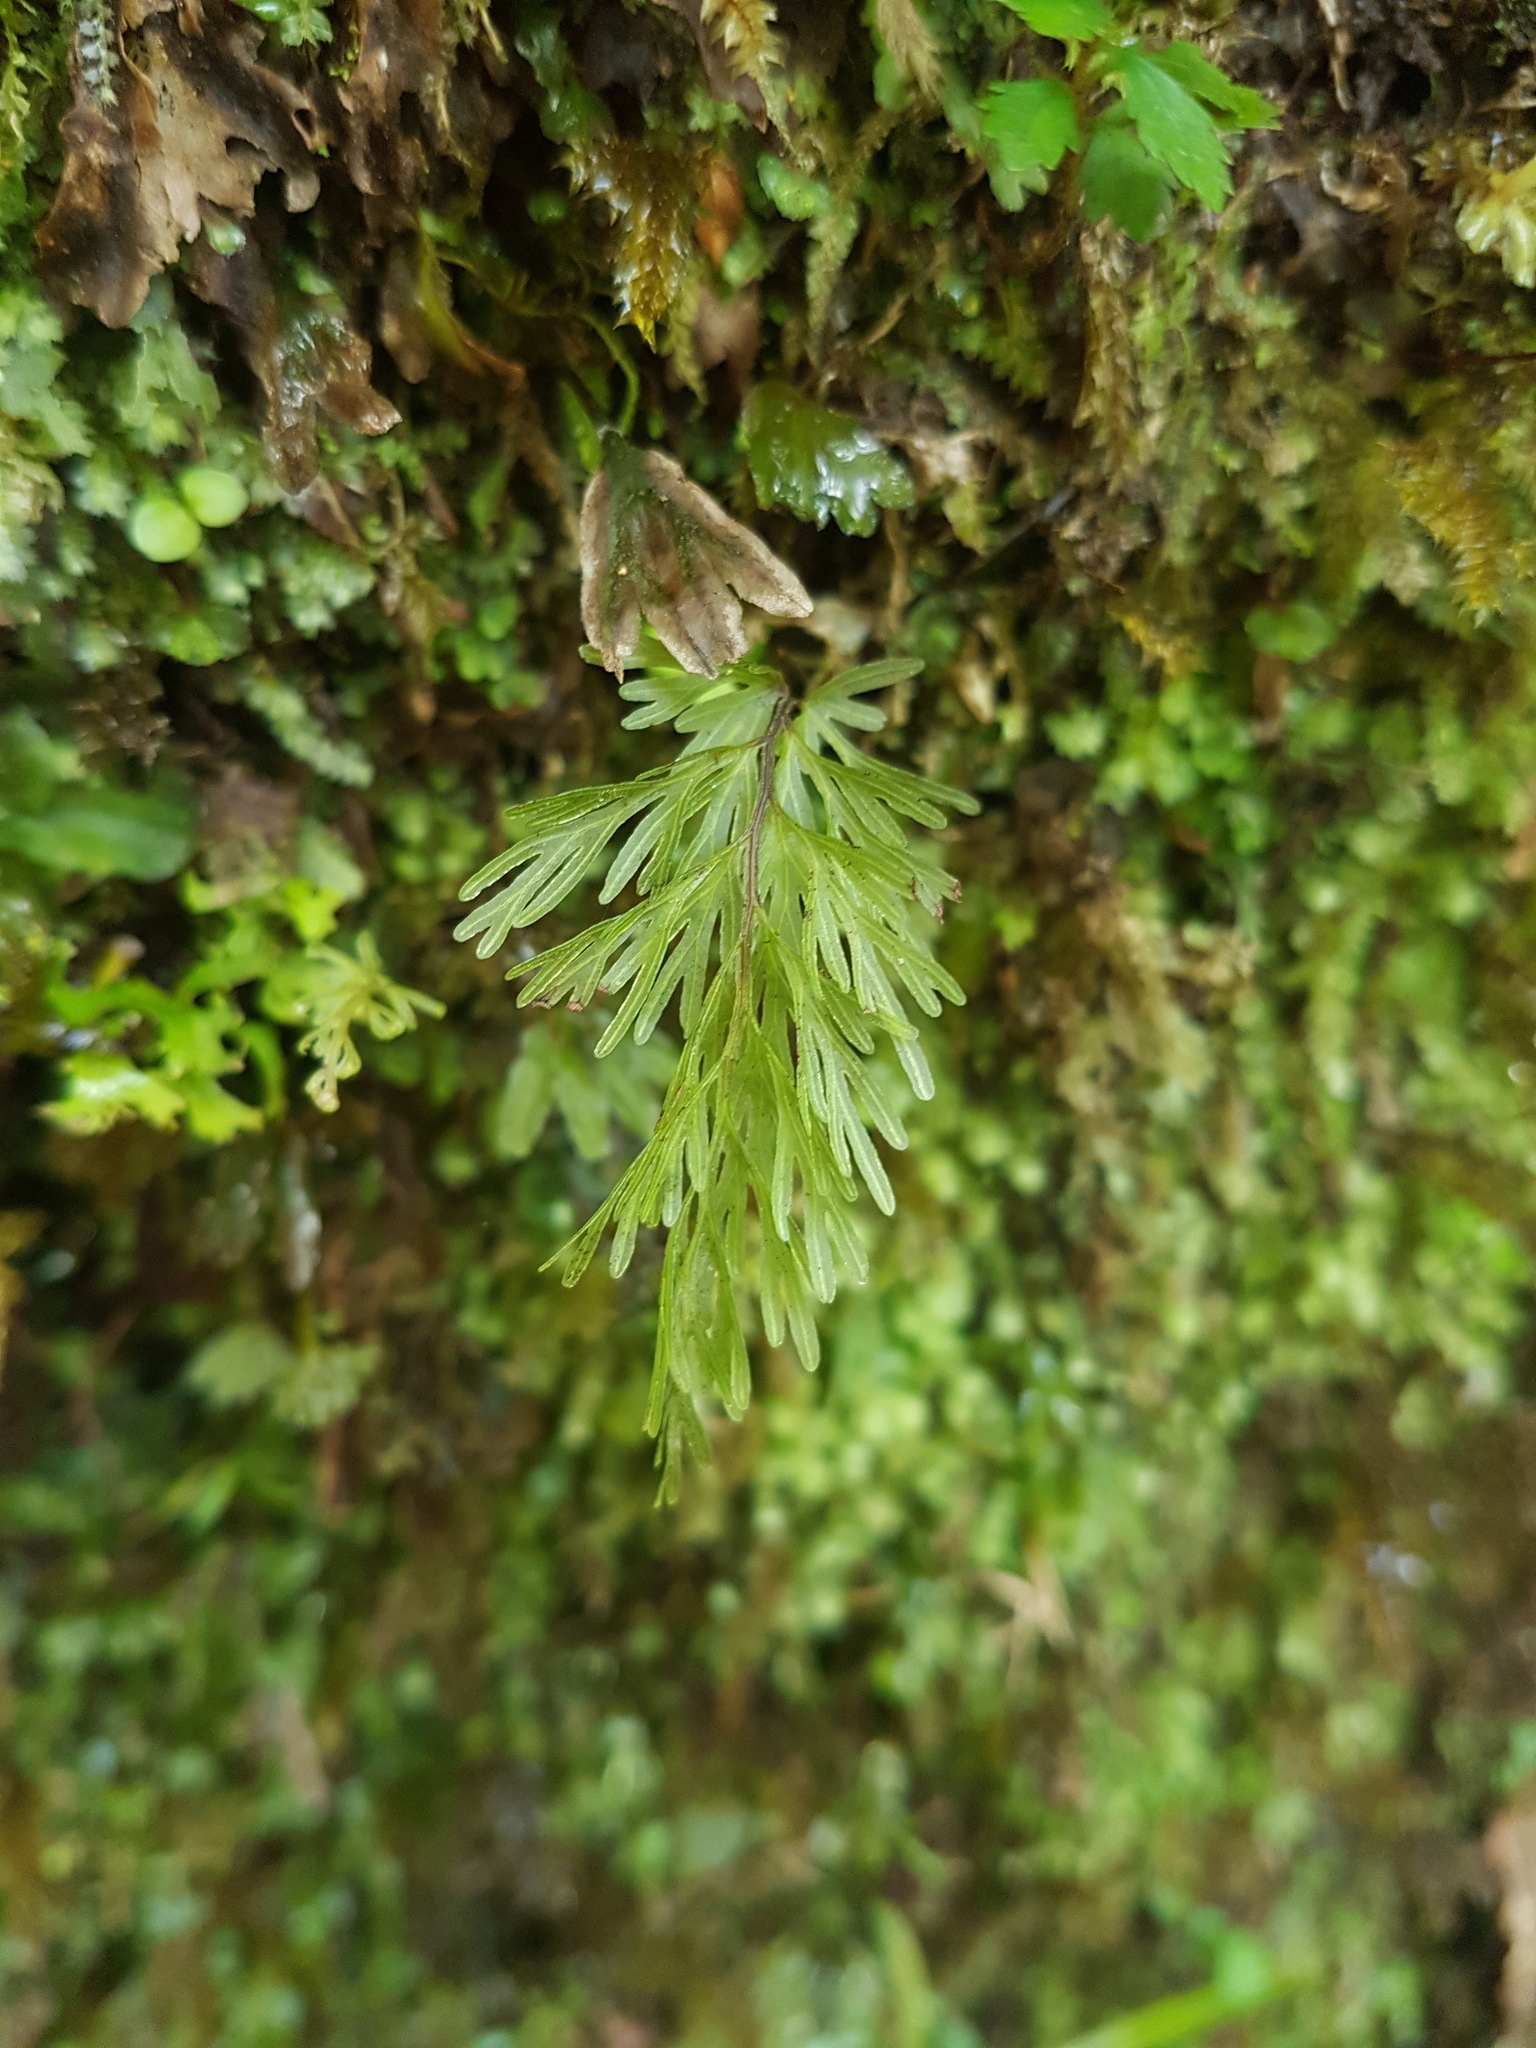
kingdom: Plantae
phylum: Tracheophyta
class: Polypodiopsida
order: Hymenophyllales
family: Hymenophyllaceae
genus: Hymenophyllum
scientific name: Hymenophyllum demissum
